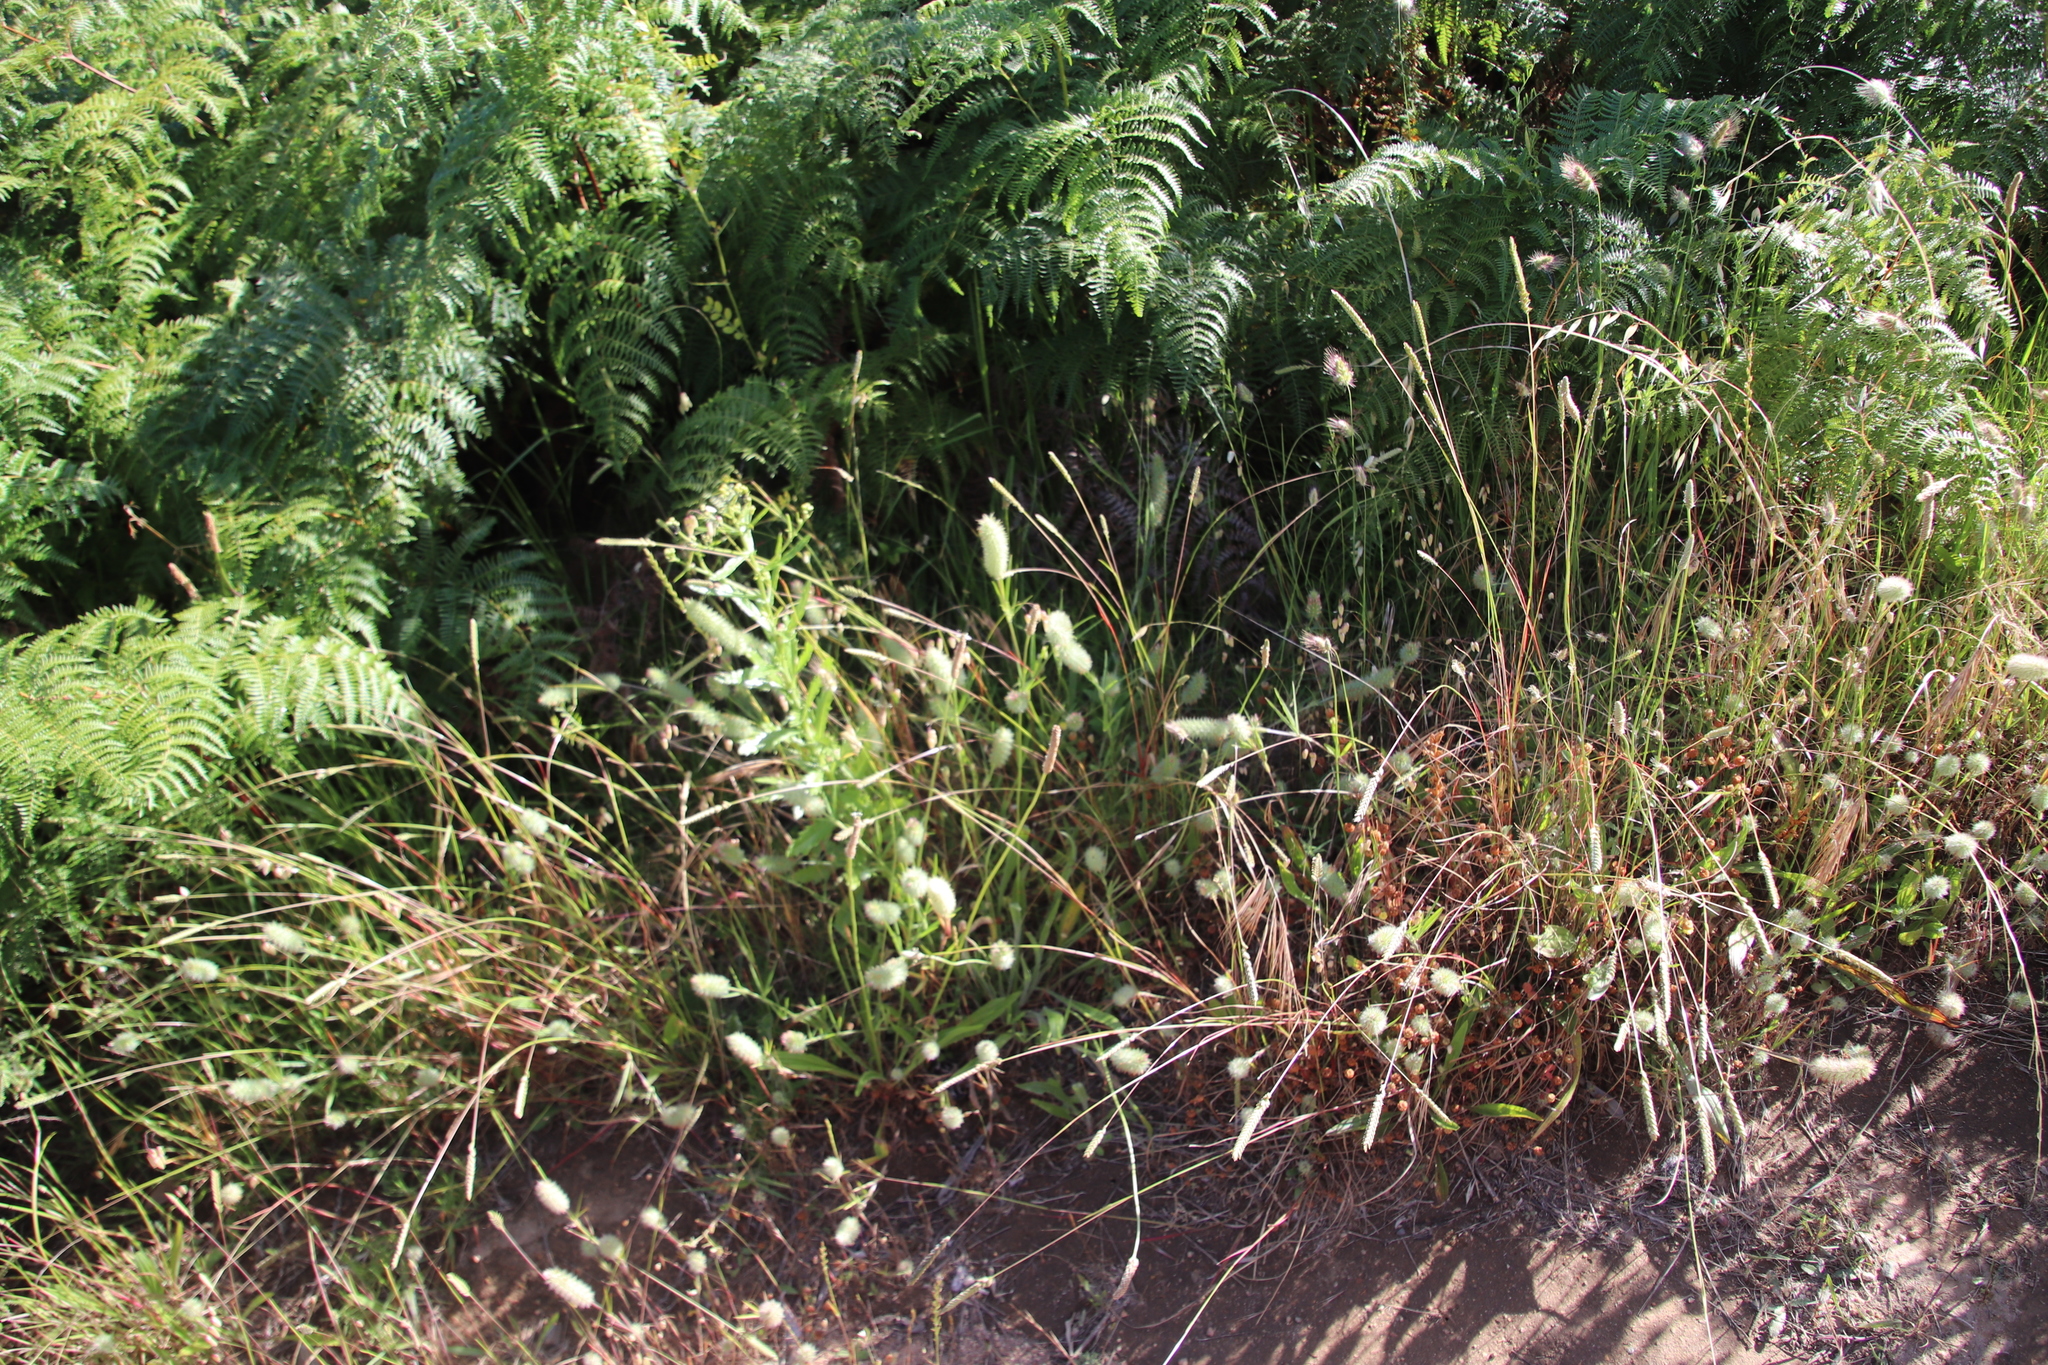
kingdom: Plantae
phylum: Tracheophyta
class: Magnoliopsida
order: Fabales
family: Fabaceae
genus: Trifolium
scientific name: Trifolium angustifolium
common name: Narrow clover
